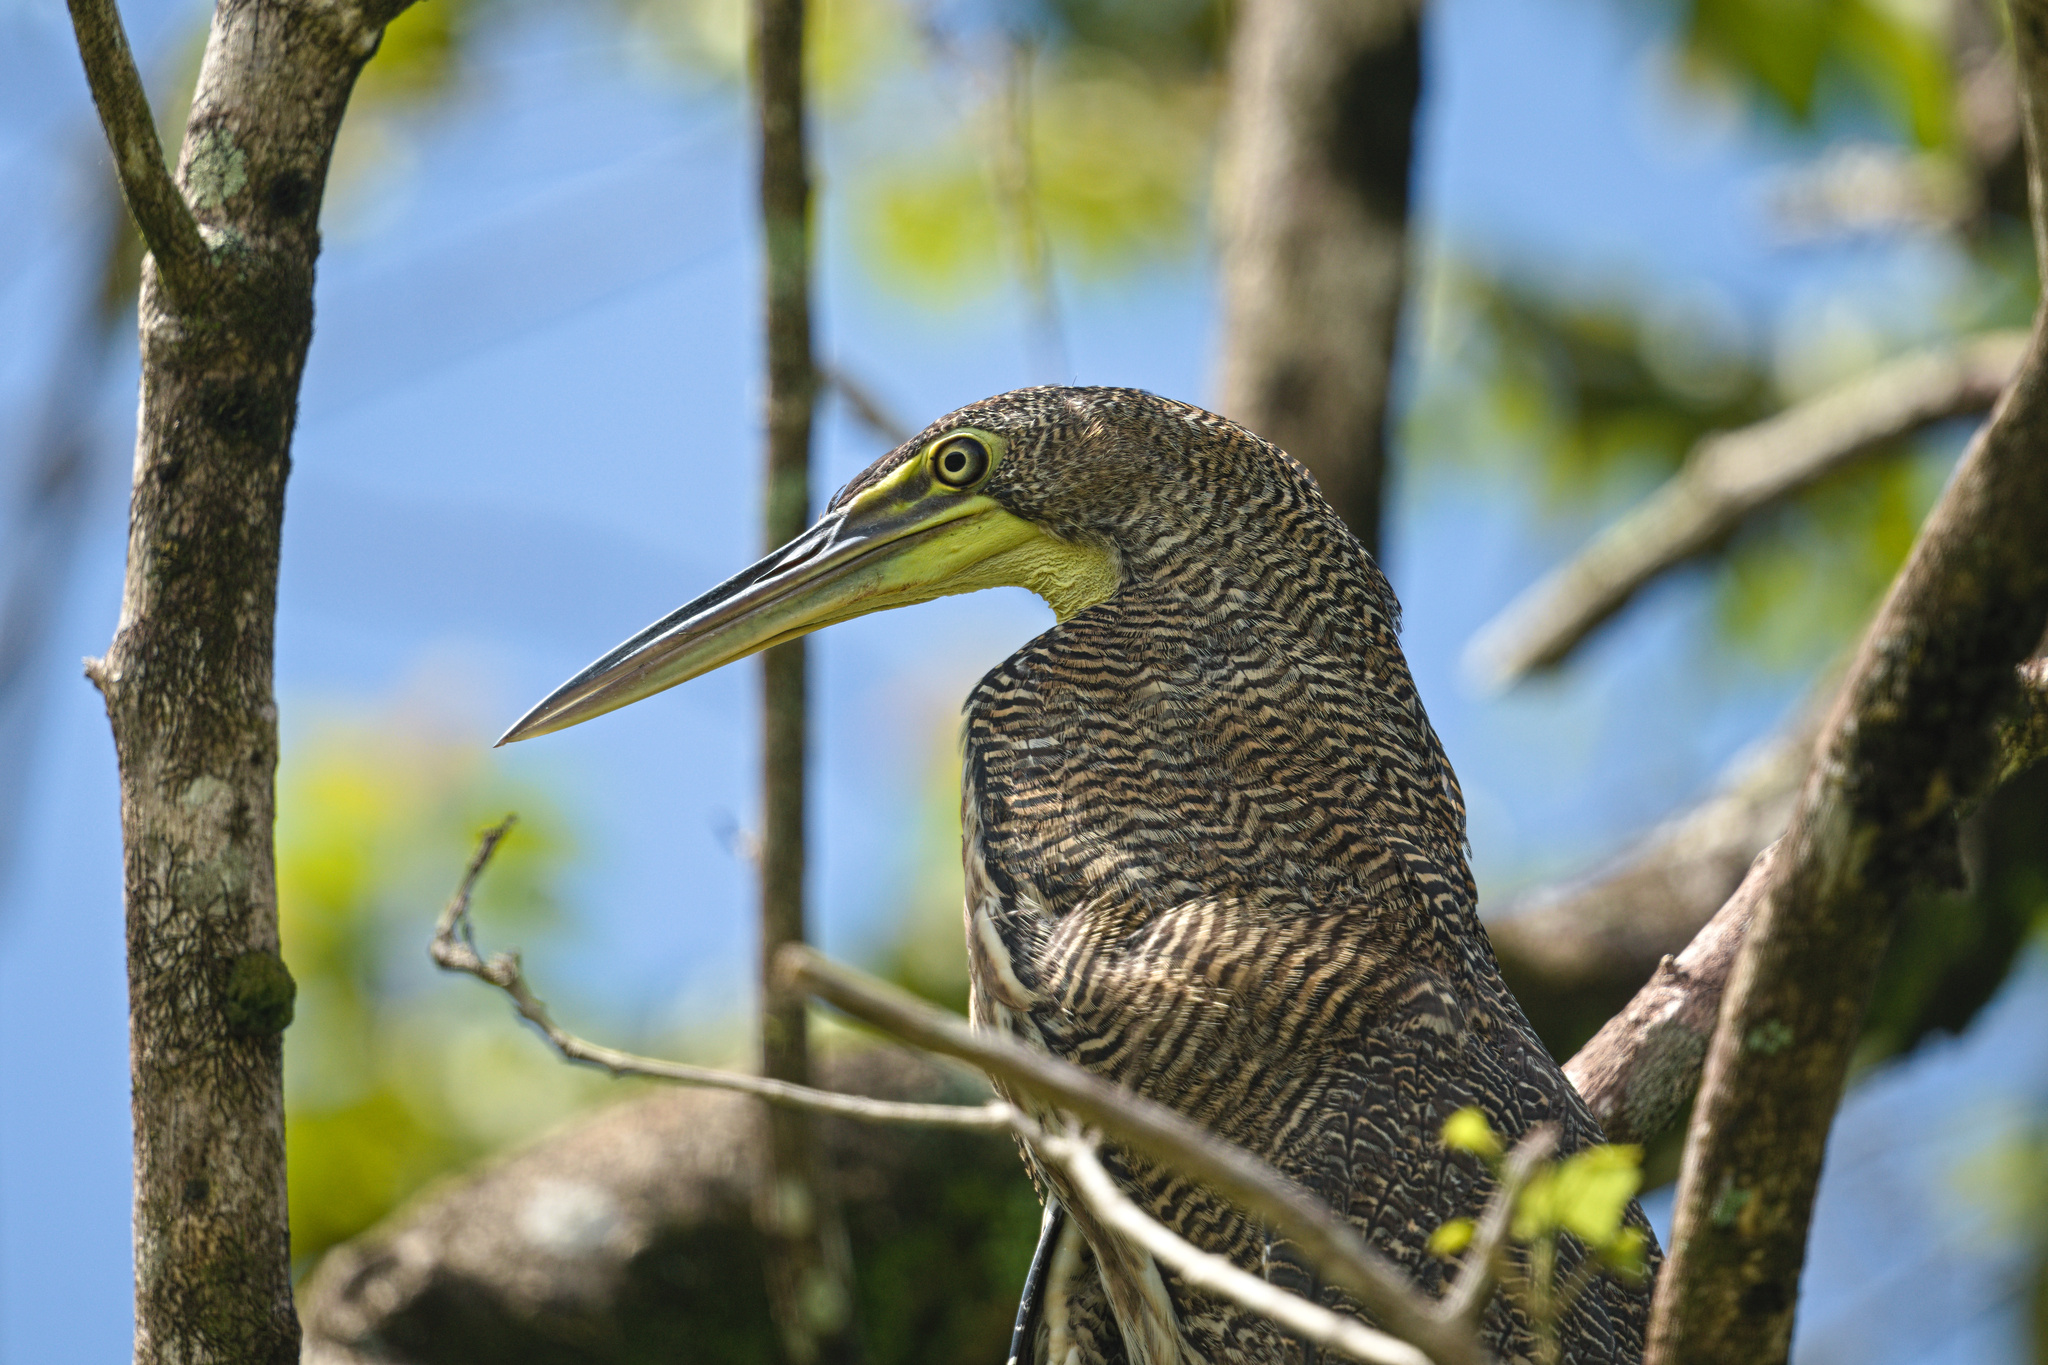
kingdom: Animalia
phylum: Chordata
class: Aves
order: Pelecaniformes
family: Ardeidae
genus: Tigrisoma
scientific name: Tigrisoma mexicanum
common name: Bare-throated tiger-heron
